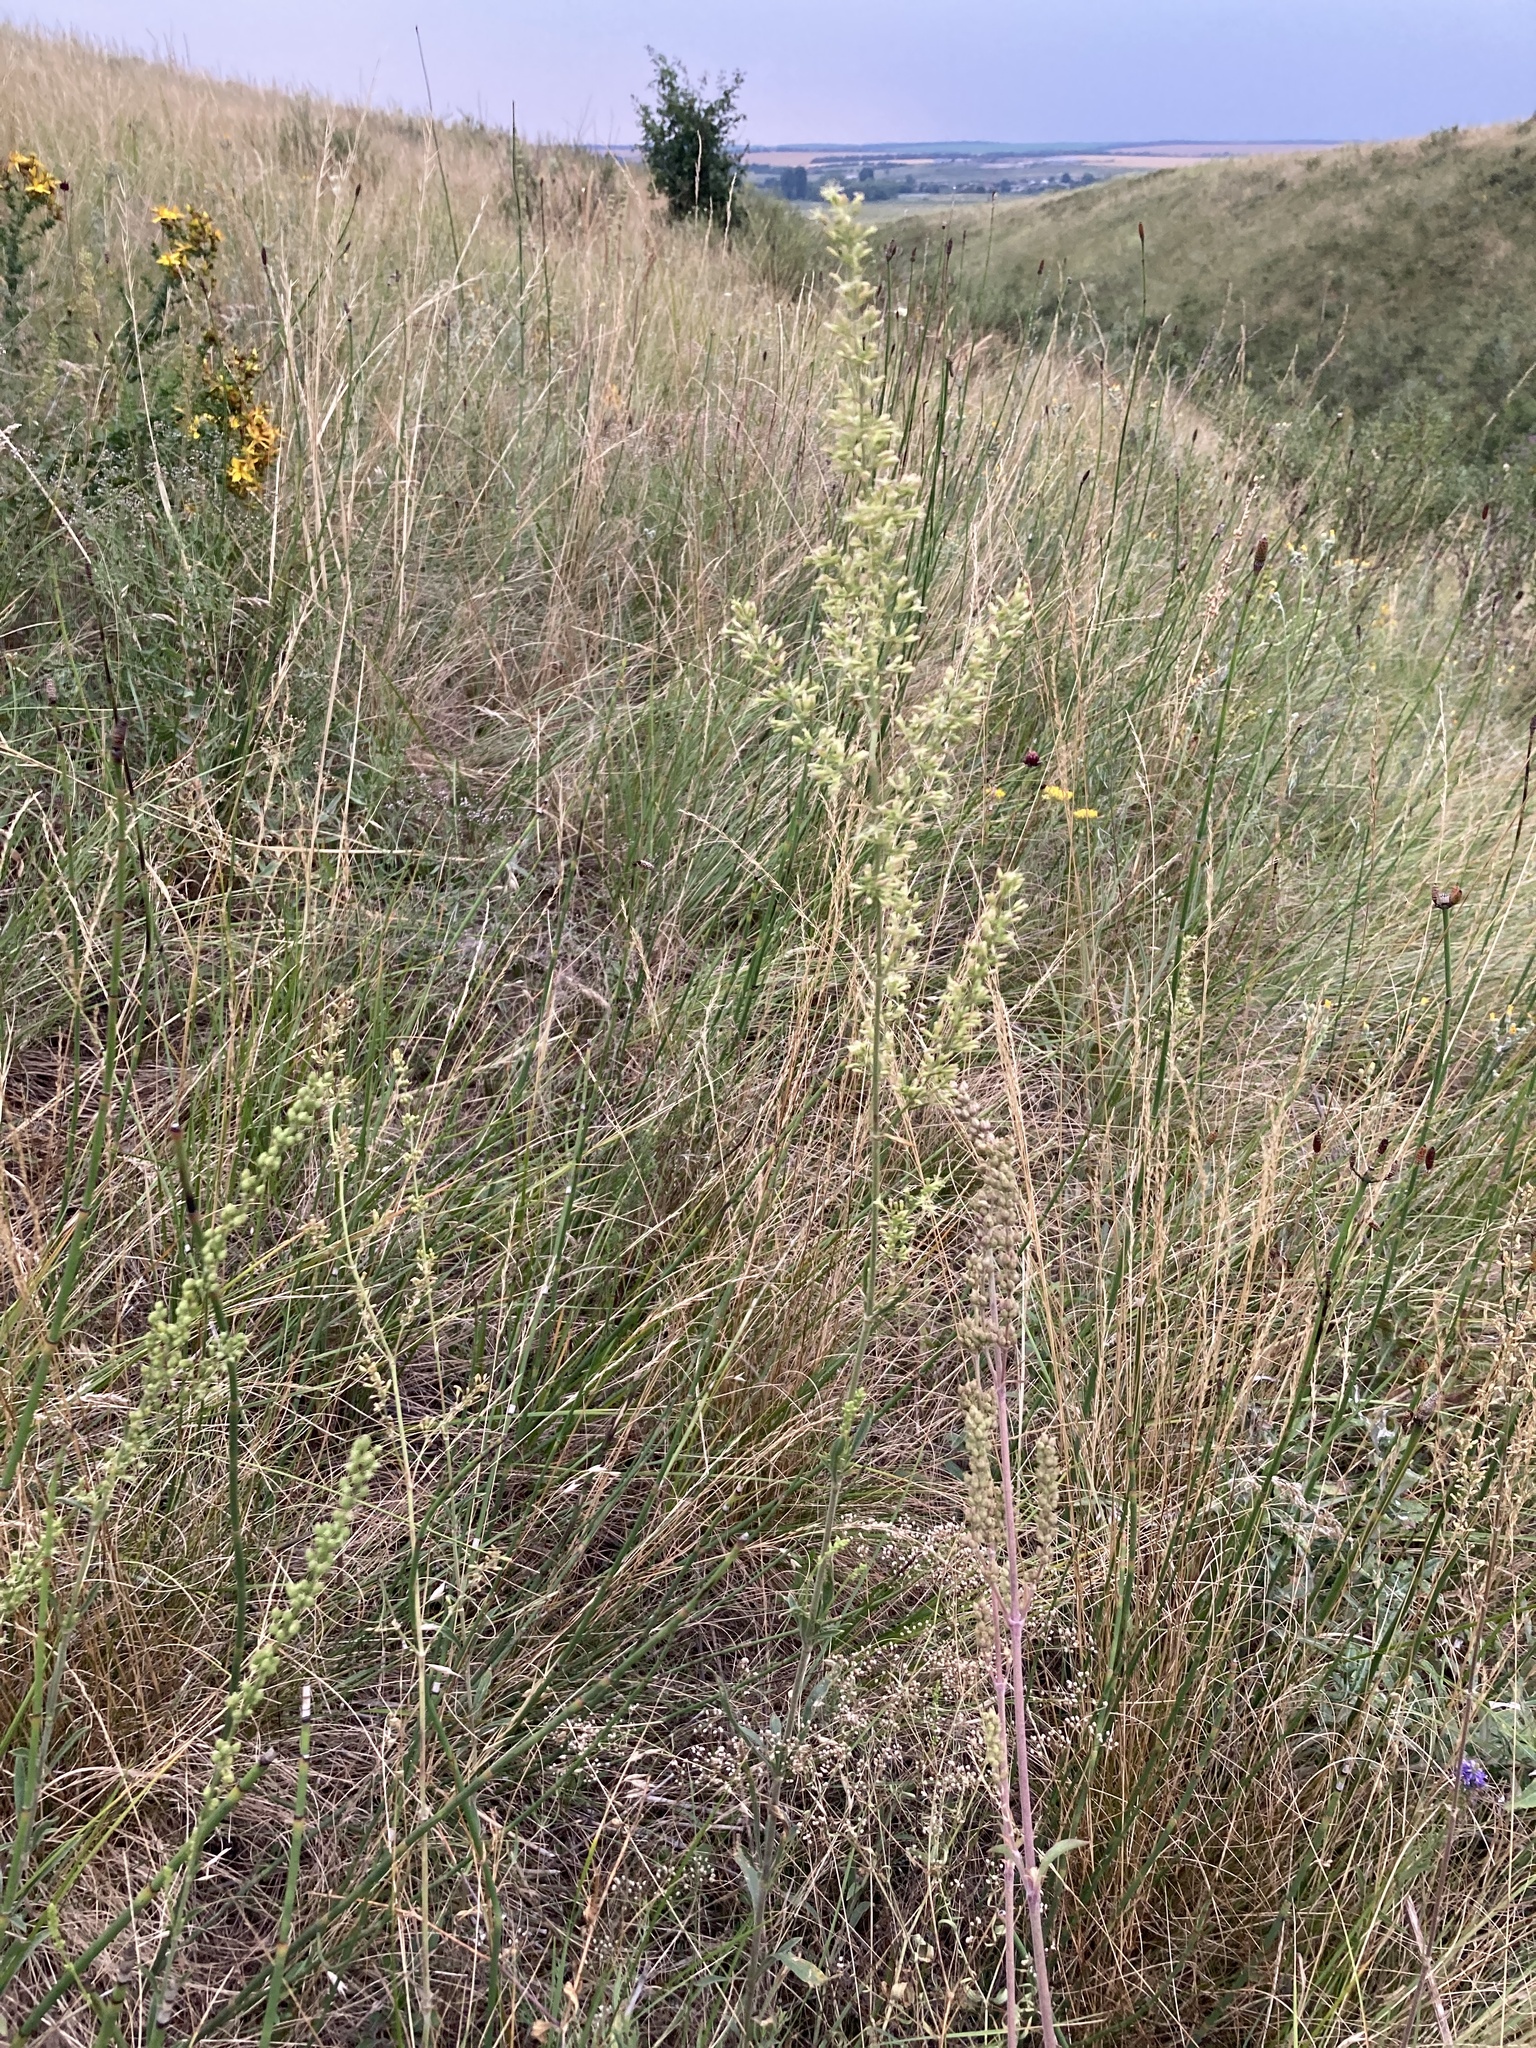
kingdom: Plantae
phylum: Tracheophyta
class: Magnoliopsida
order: Caryophyllales
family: Caryophyllaceae
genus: Silene
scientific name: Silene borysthenica
